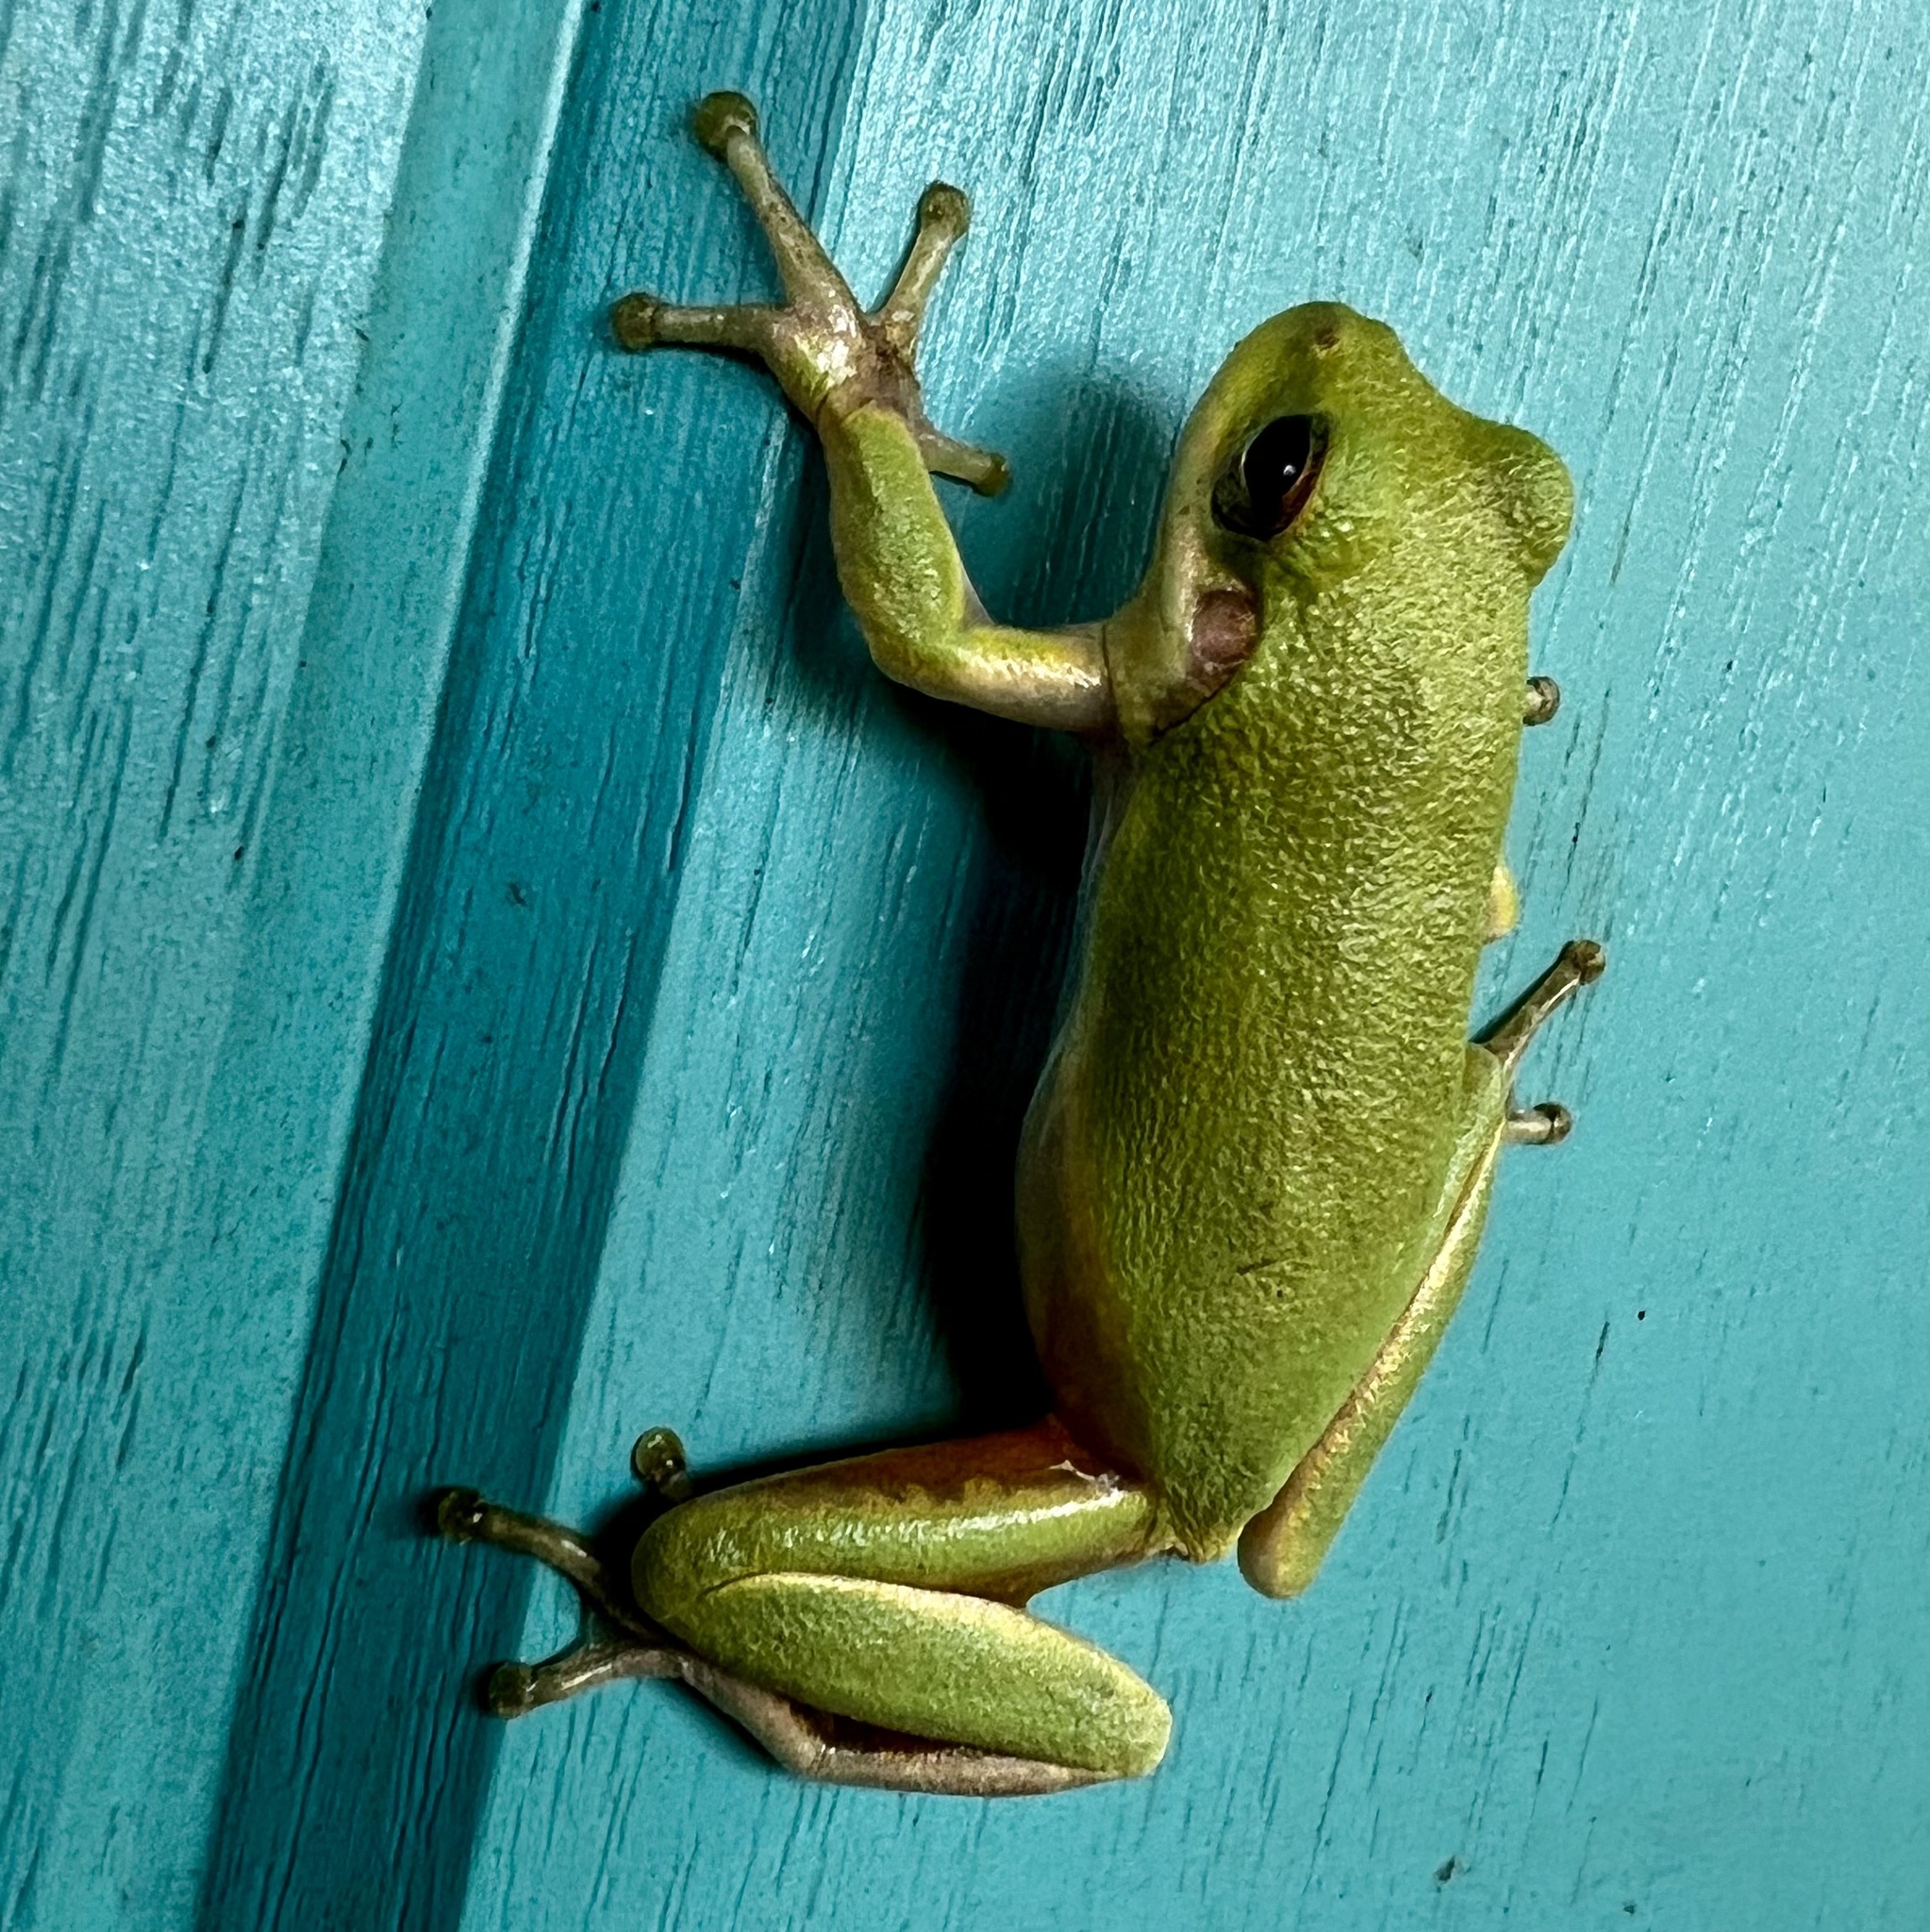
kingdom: Animalia
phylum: Chordata
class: Amphibia
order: Anura
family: Hylidae
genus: Dryophytes
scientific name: Dryophytes squirellus
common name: Squirrel treefrog
